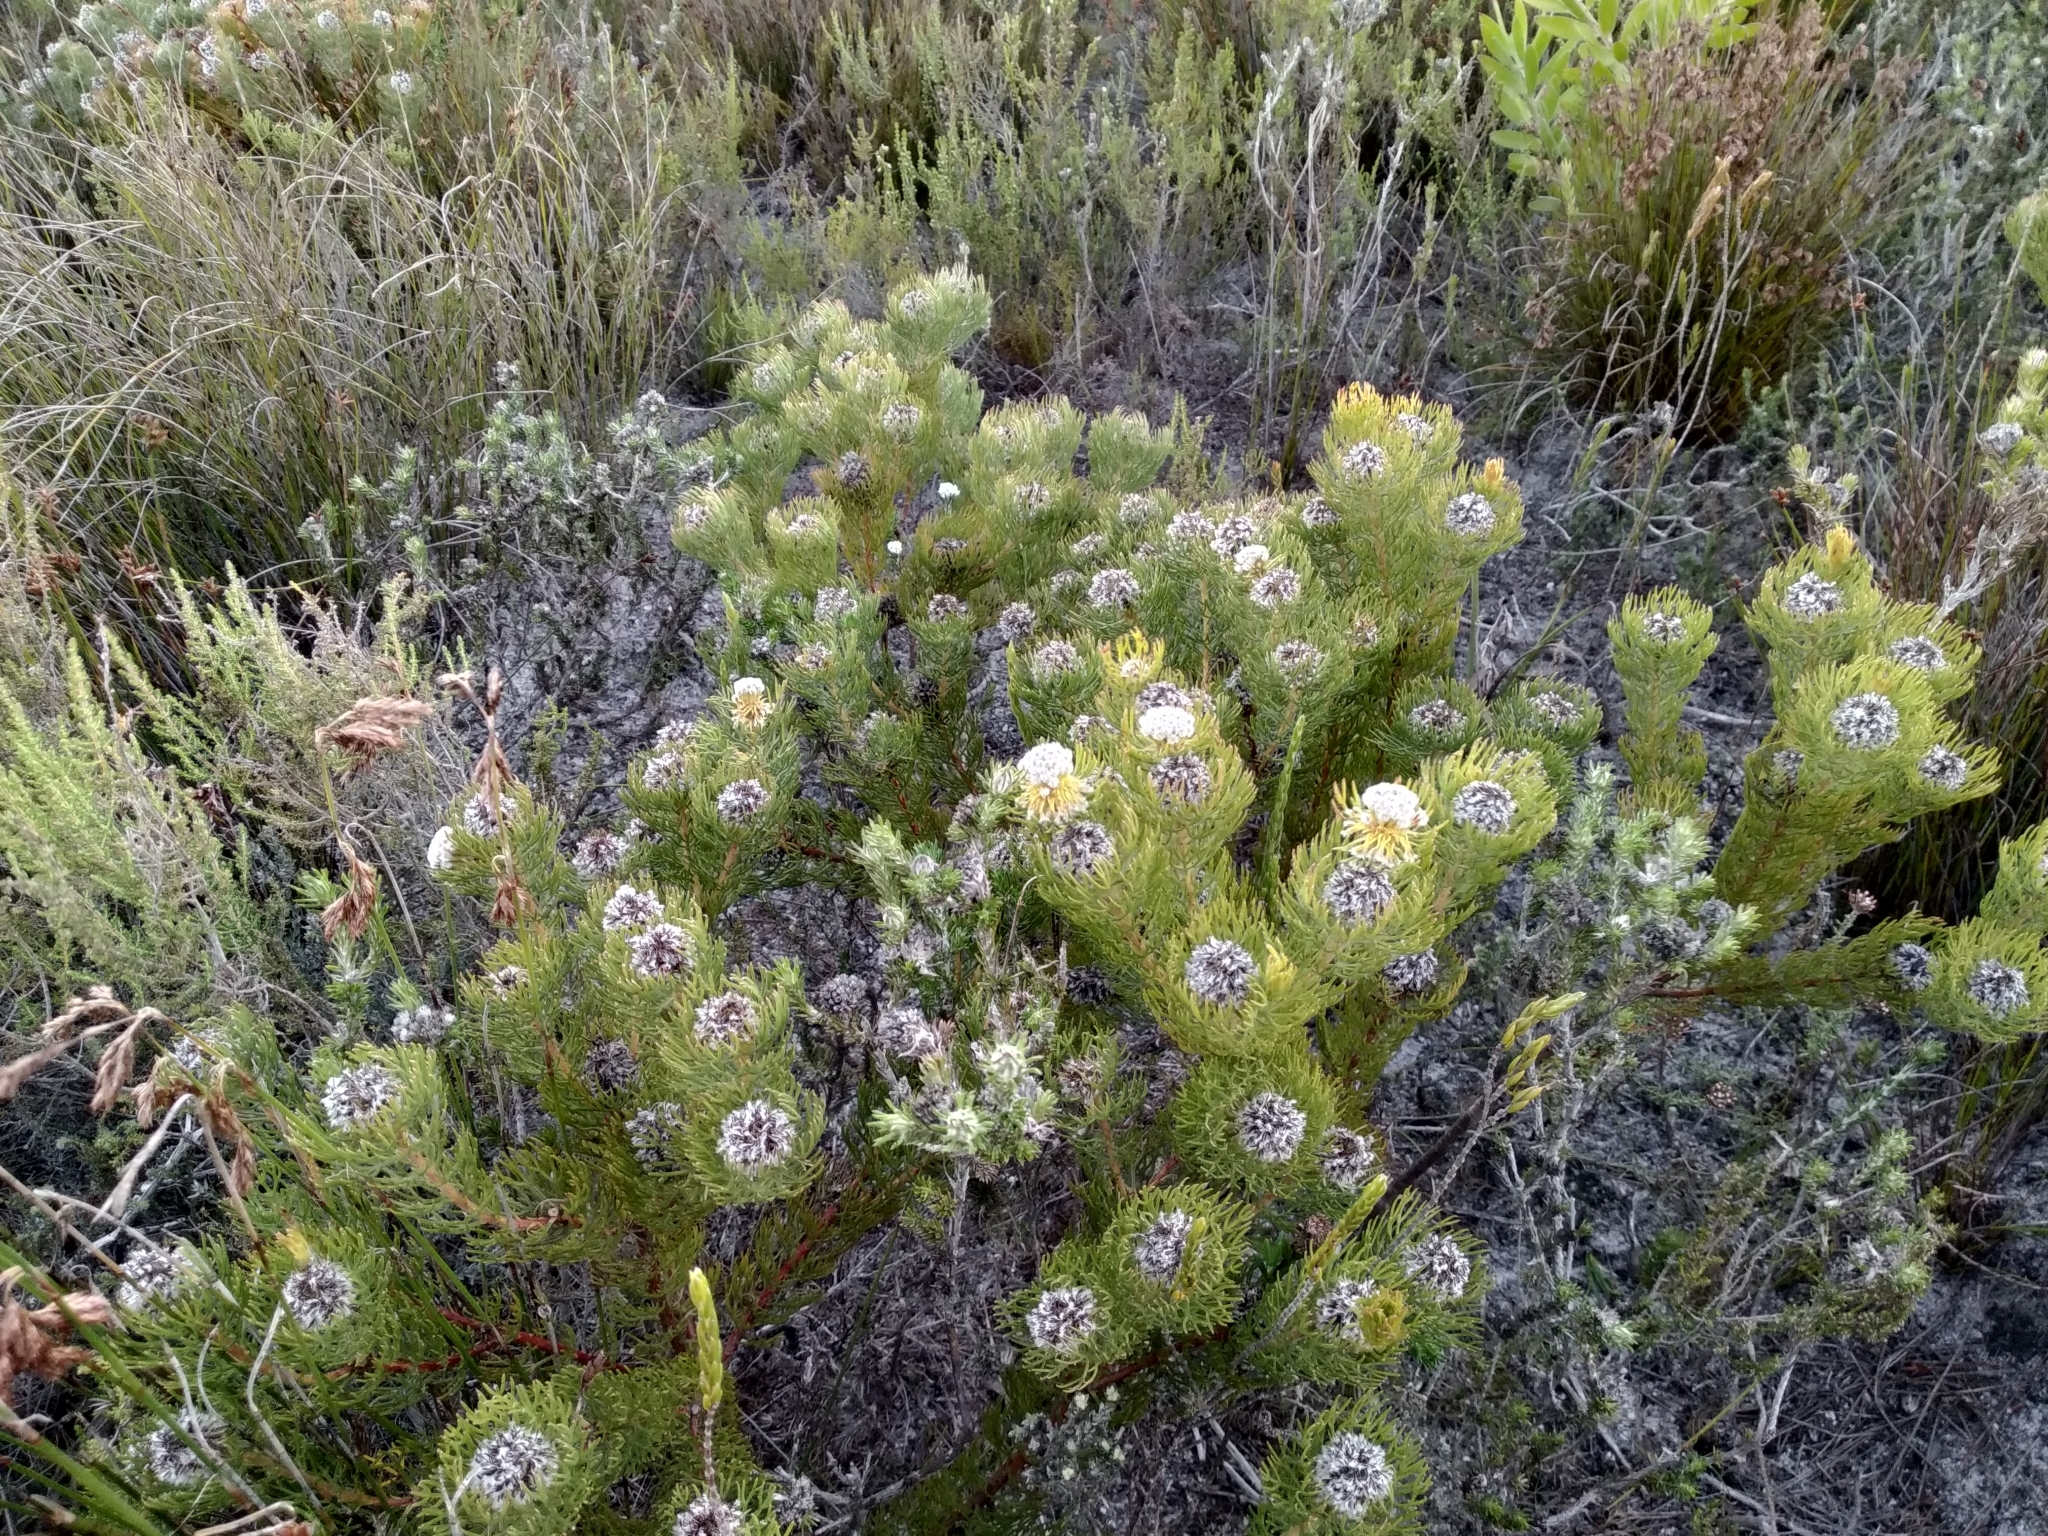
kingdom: Plantae
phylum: Tracheophyta
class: Magnoliopsida
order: Proteales
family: Proteaceae
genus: Serruria
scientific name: Serruria villosa
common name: Golden spiderhead
